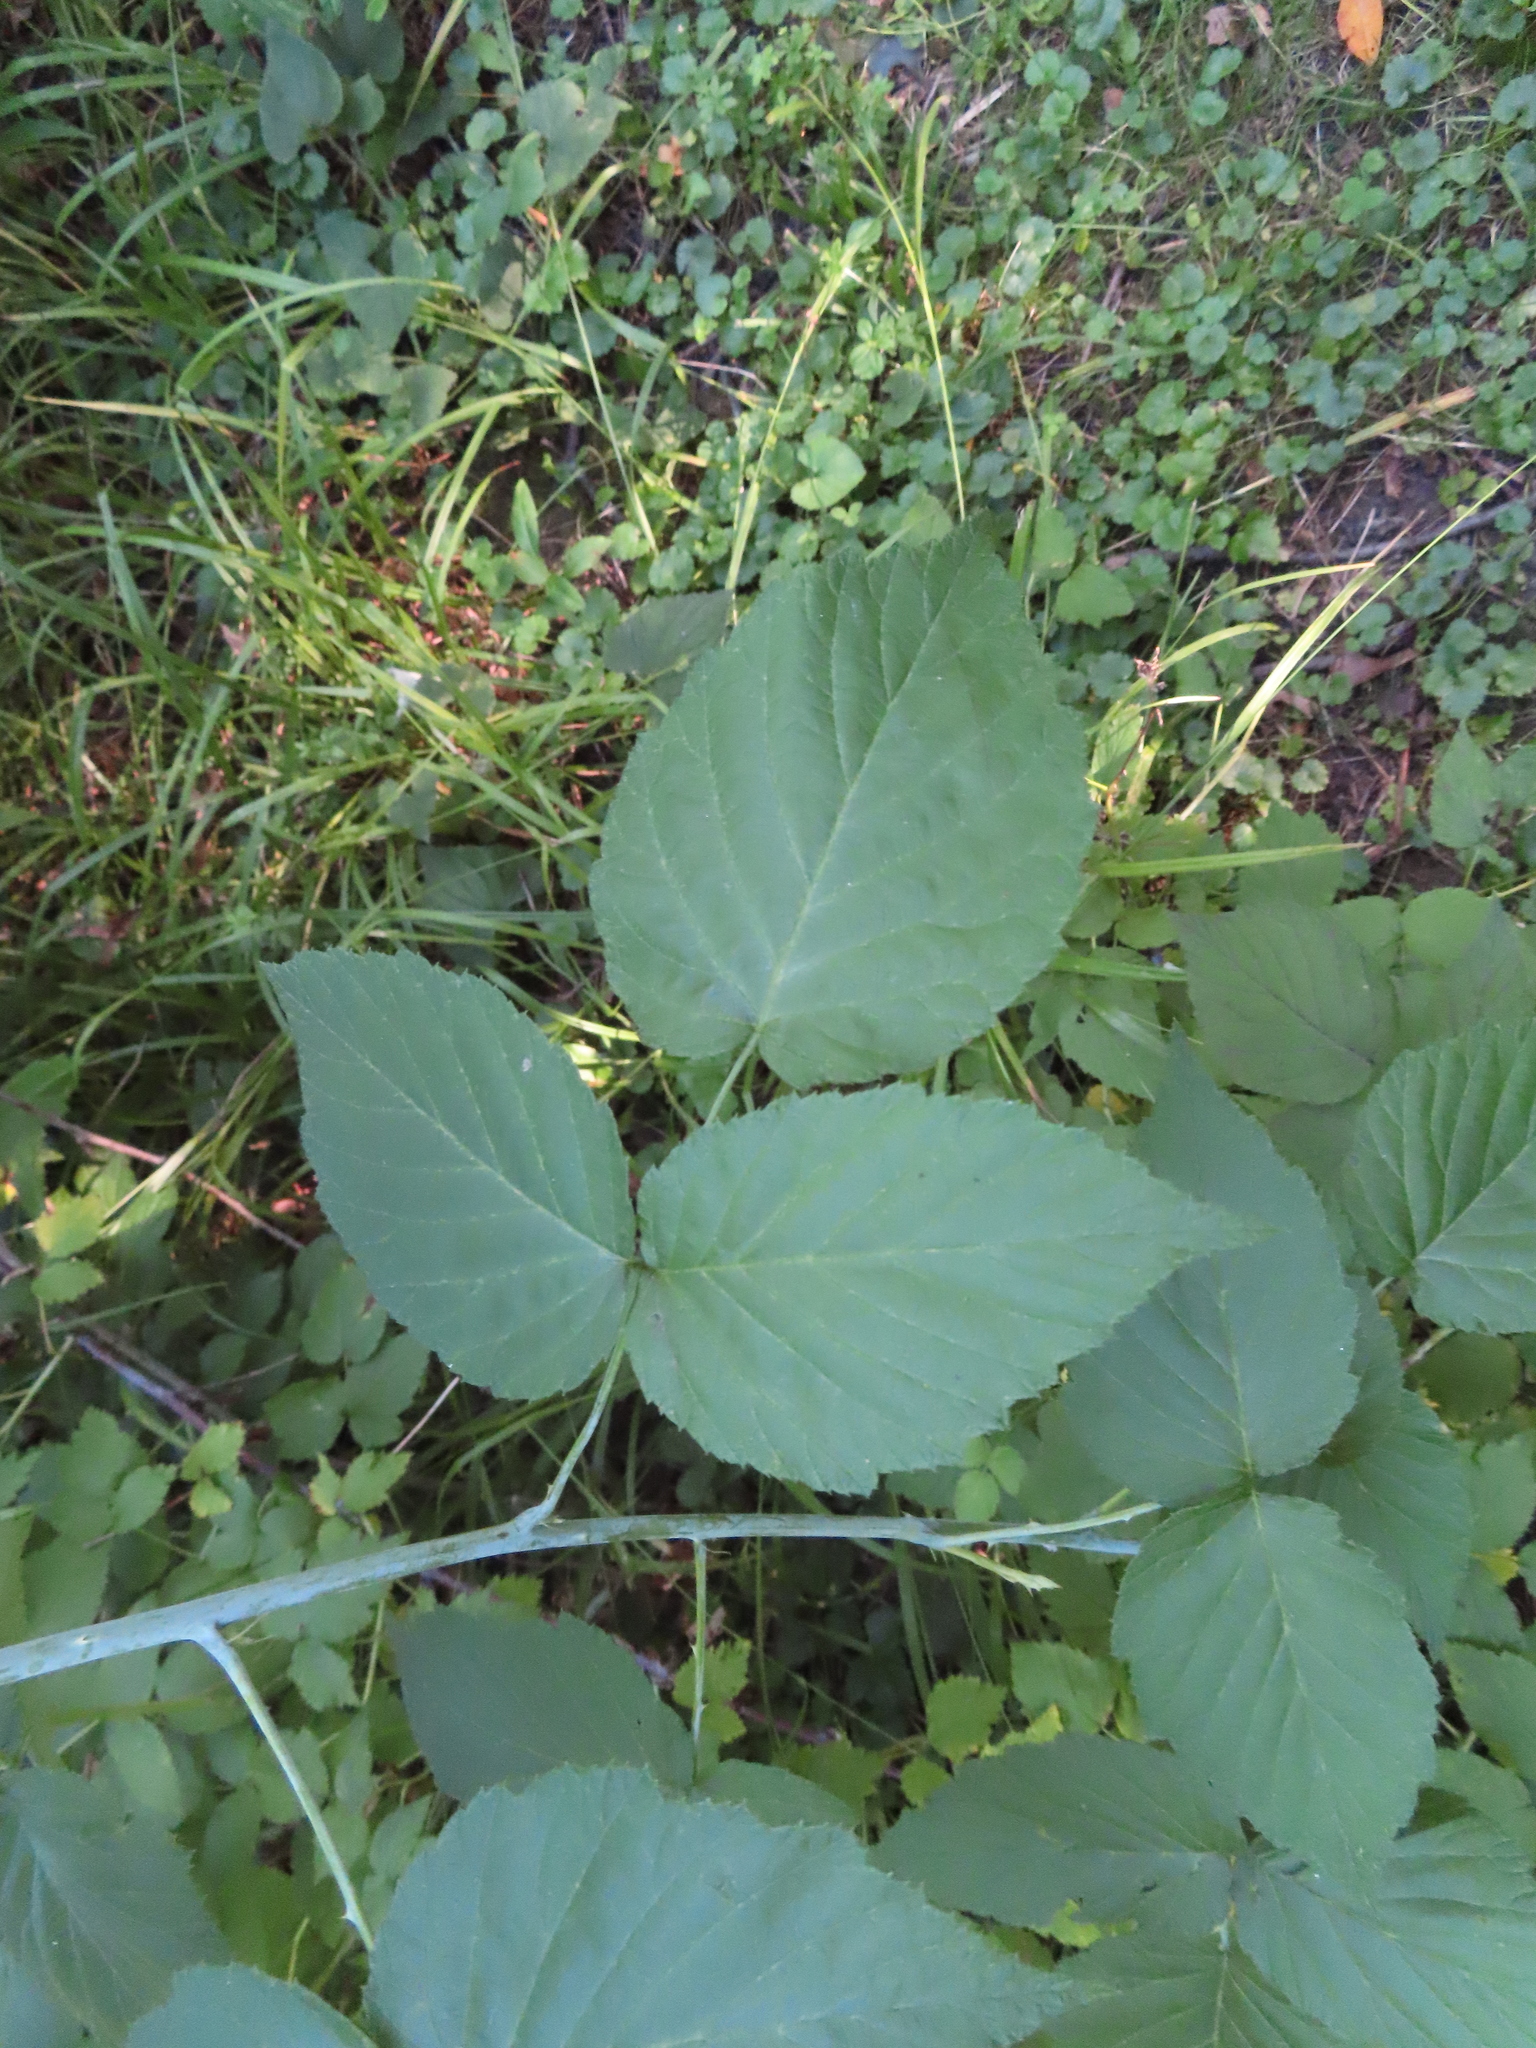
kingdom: Plantae
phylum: Tracheophyta
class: Magnoliopsida
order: Rosales
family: Rosaceae
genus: Rubus
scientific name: Rubus occidentalis
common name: Black raspberry
